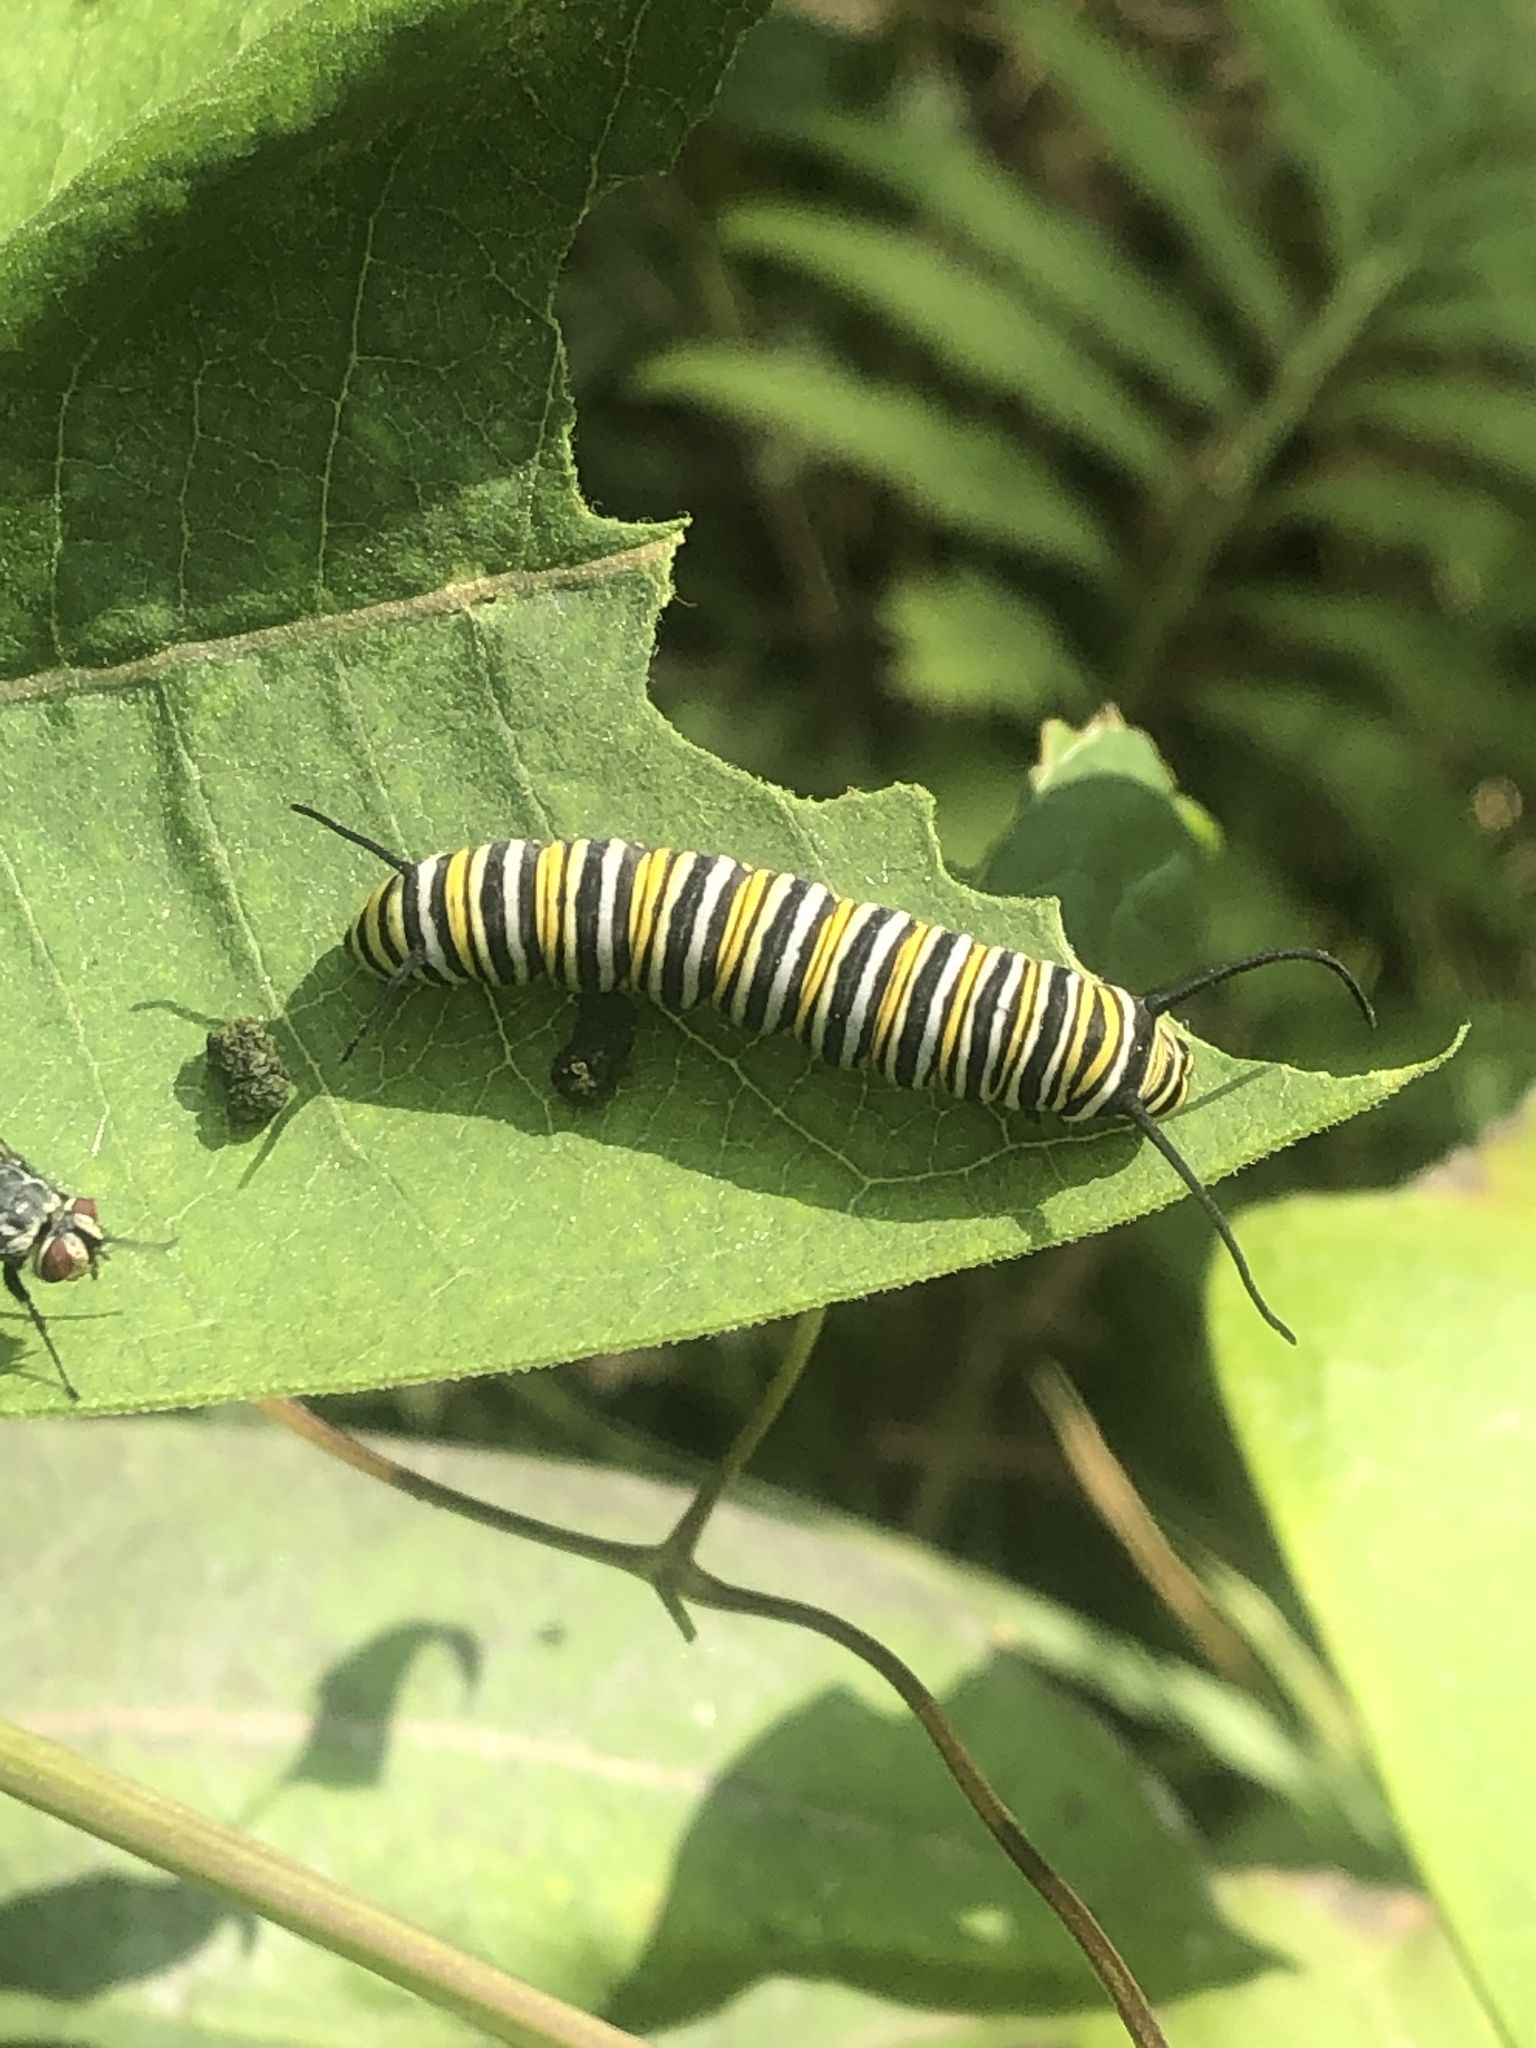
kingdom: Animalia
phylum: Arthropoda
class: Insecta
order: Lepidoptera
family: Nymphalidae
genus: Danaus
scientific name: Danaus plexippus
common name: Monarch
